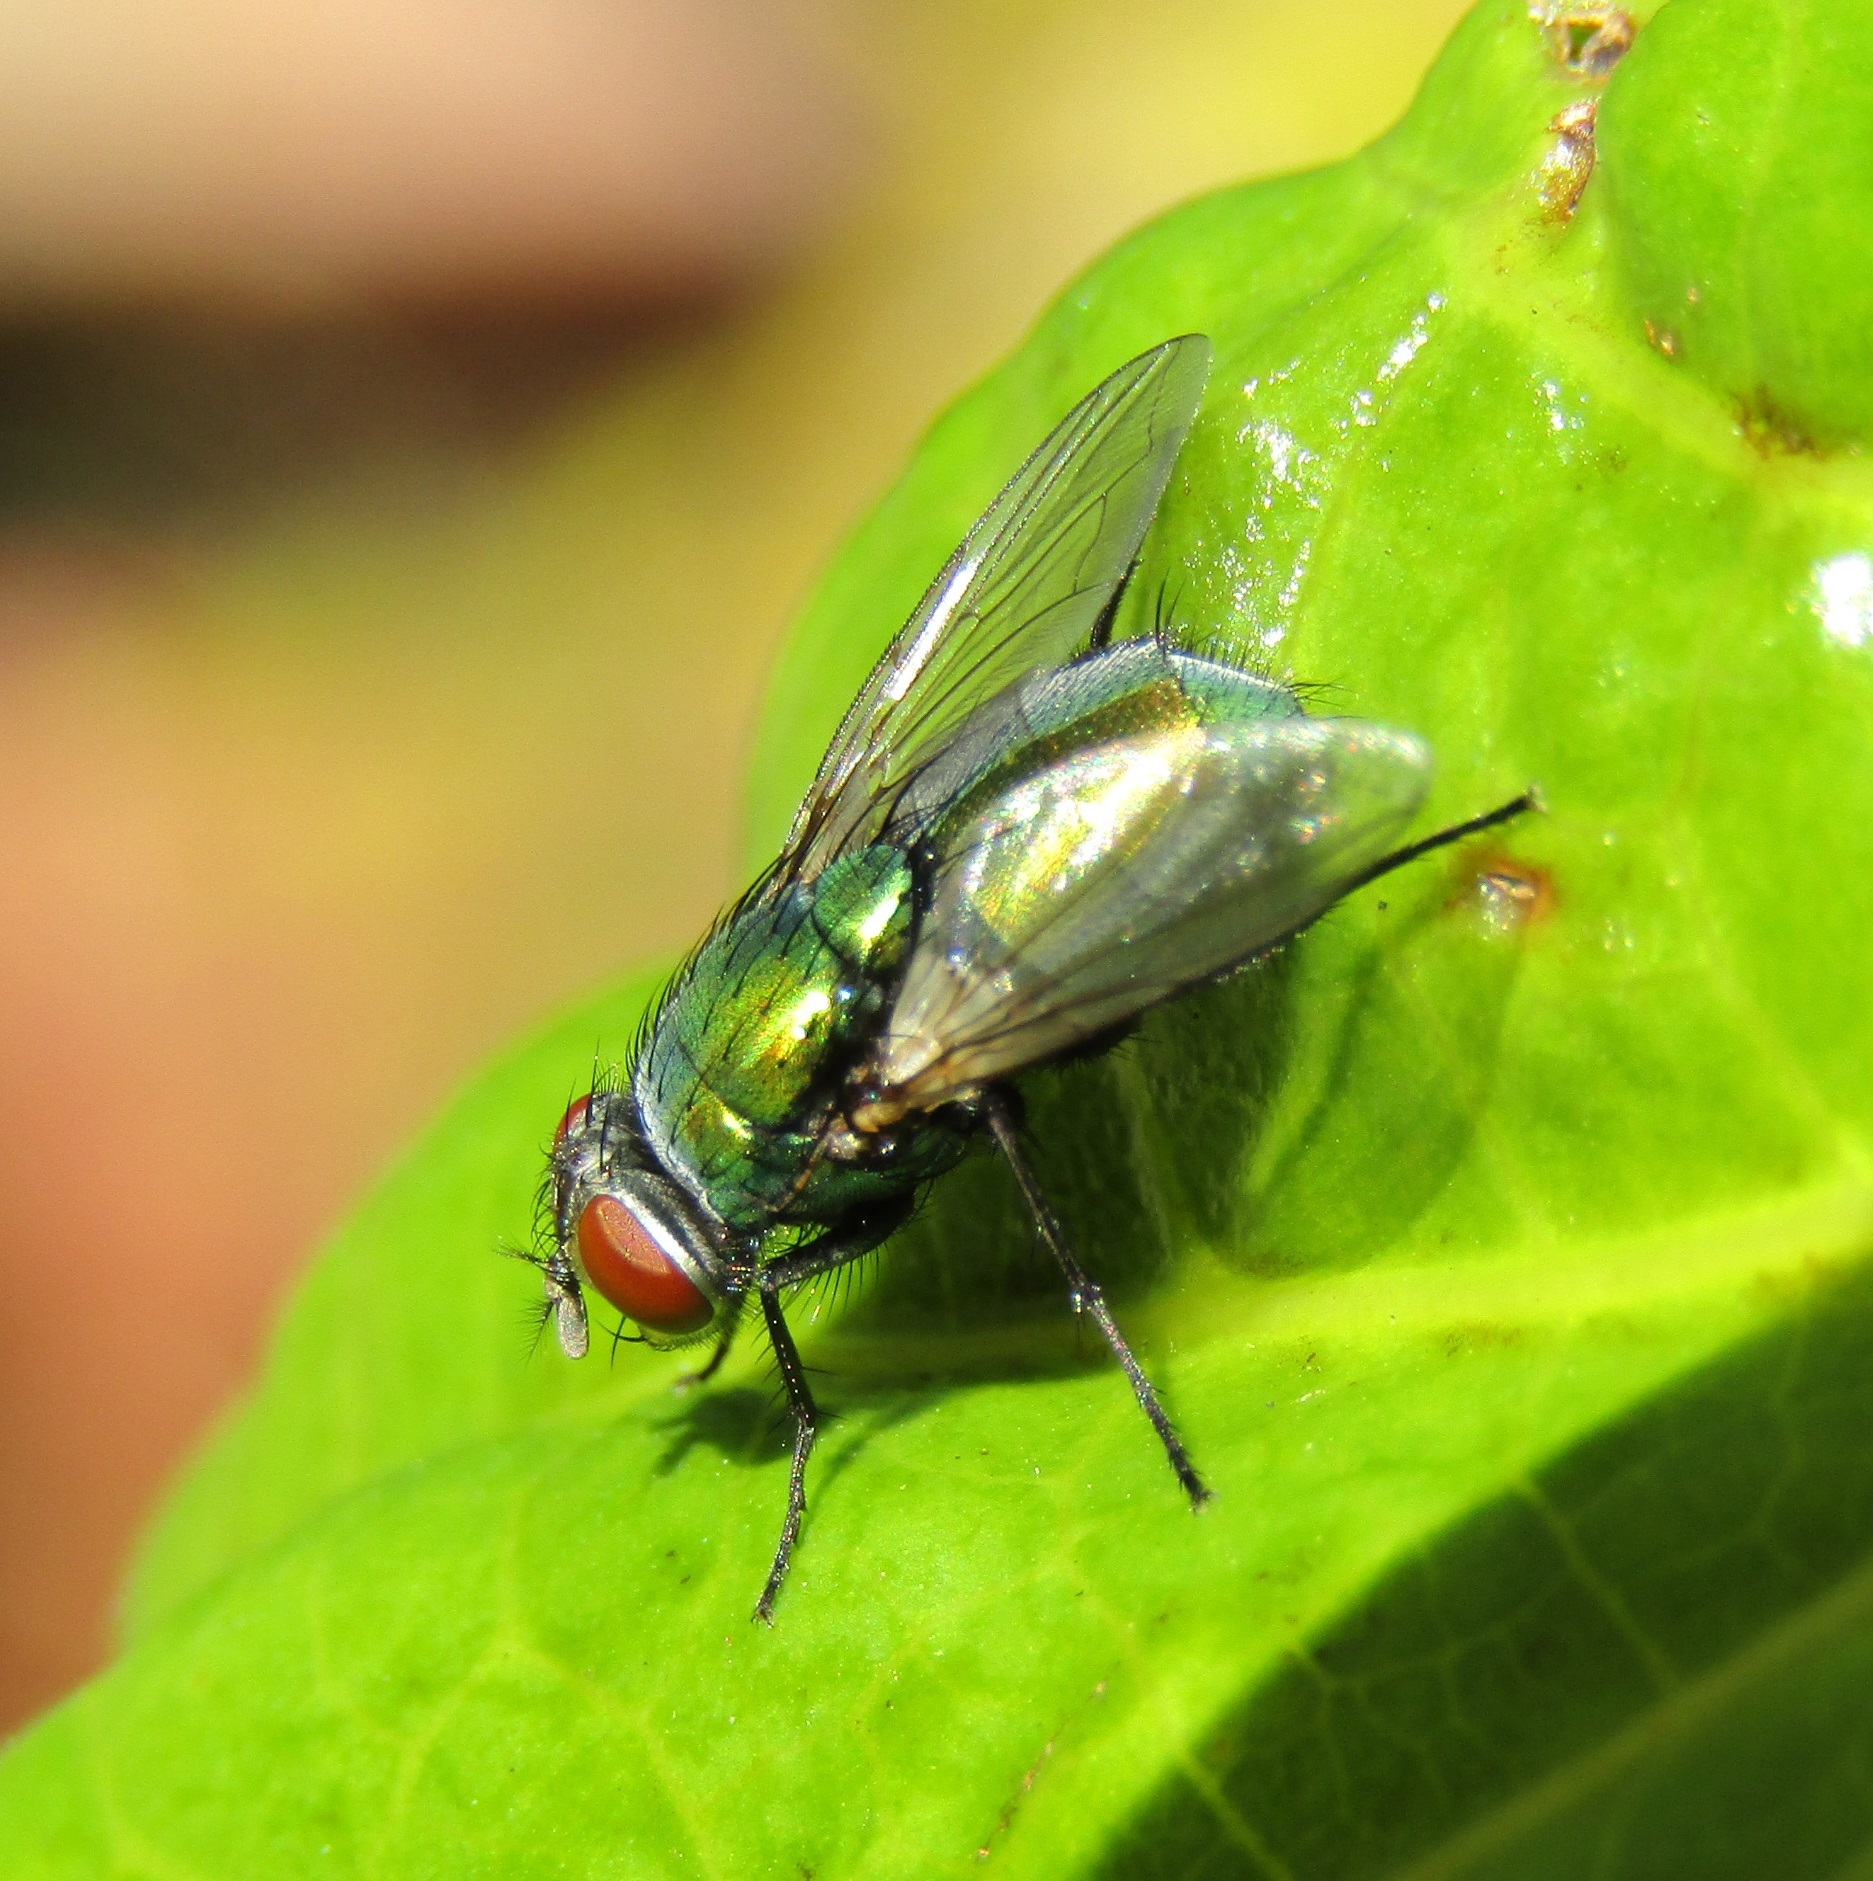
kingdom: Animalia
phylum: Arthropoda
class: Insecta
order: Diptera
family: Calliphoridae
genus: Lucilia
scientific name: Lucilia sericata
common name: Blow fly
